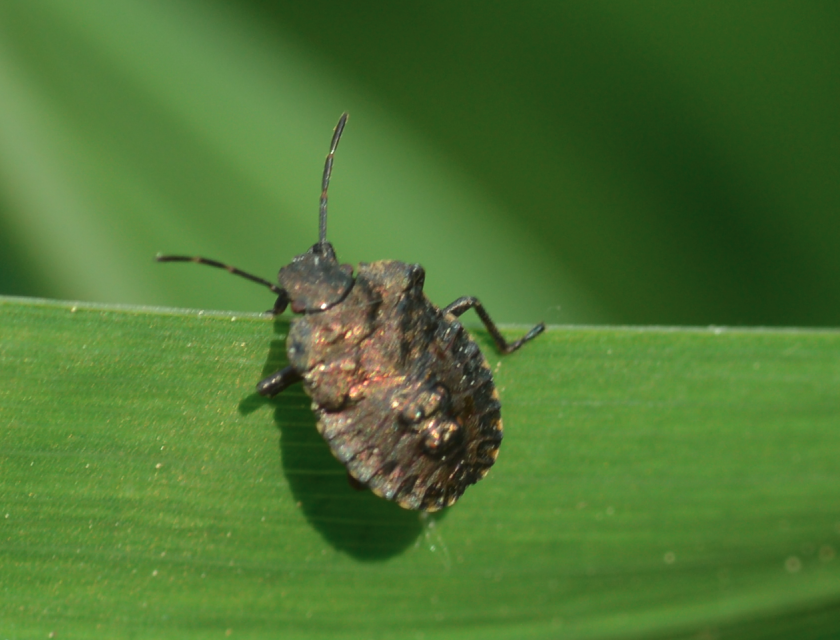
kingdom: Animalia
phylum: Arthropoda
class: Insecta
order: Hemiptera
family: Pentatomidae
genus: Pentatoma
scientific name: Pentatoma rufipes
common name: Forest bug
